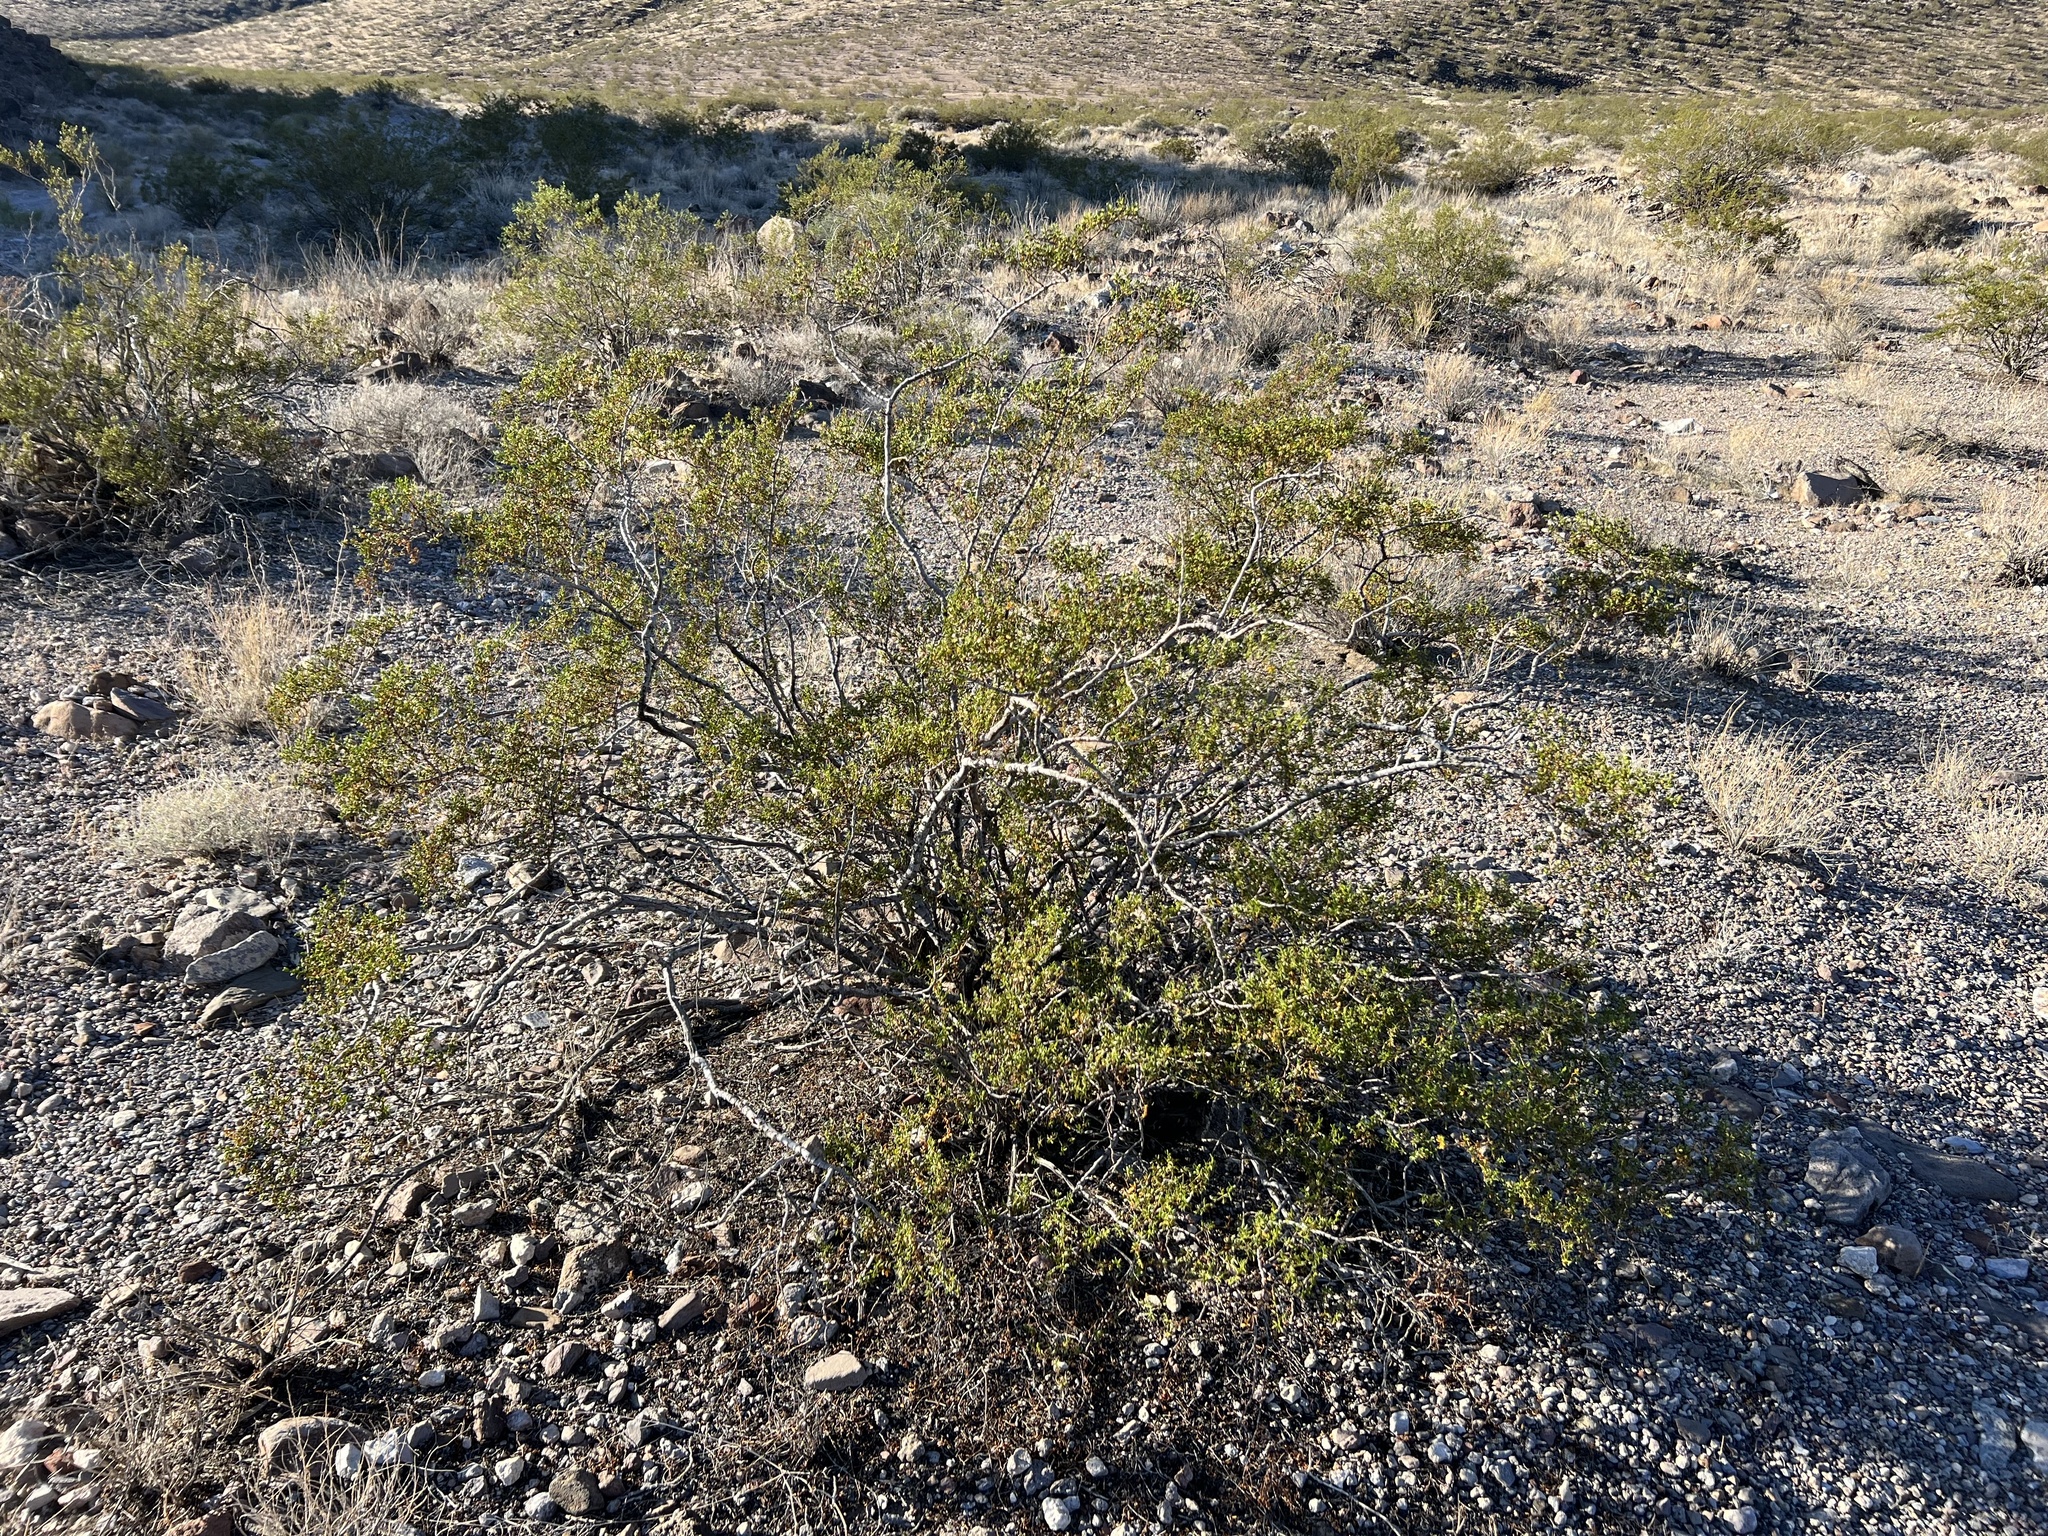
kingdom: Plantae
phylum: Tracheophyta
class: Magnoliopsida
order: Zygophyllales
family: Zygophyllaceae
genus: Larrea
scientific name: Larrea tridentata
